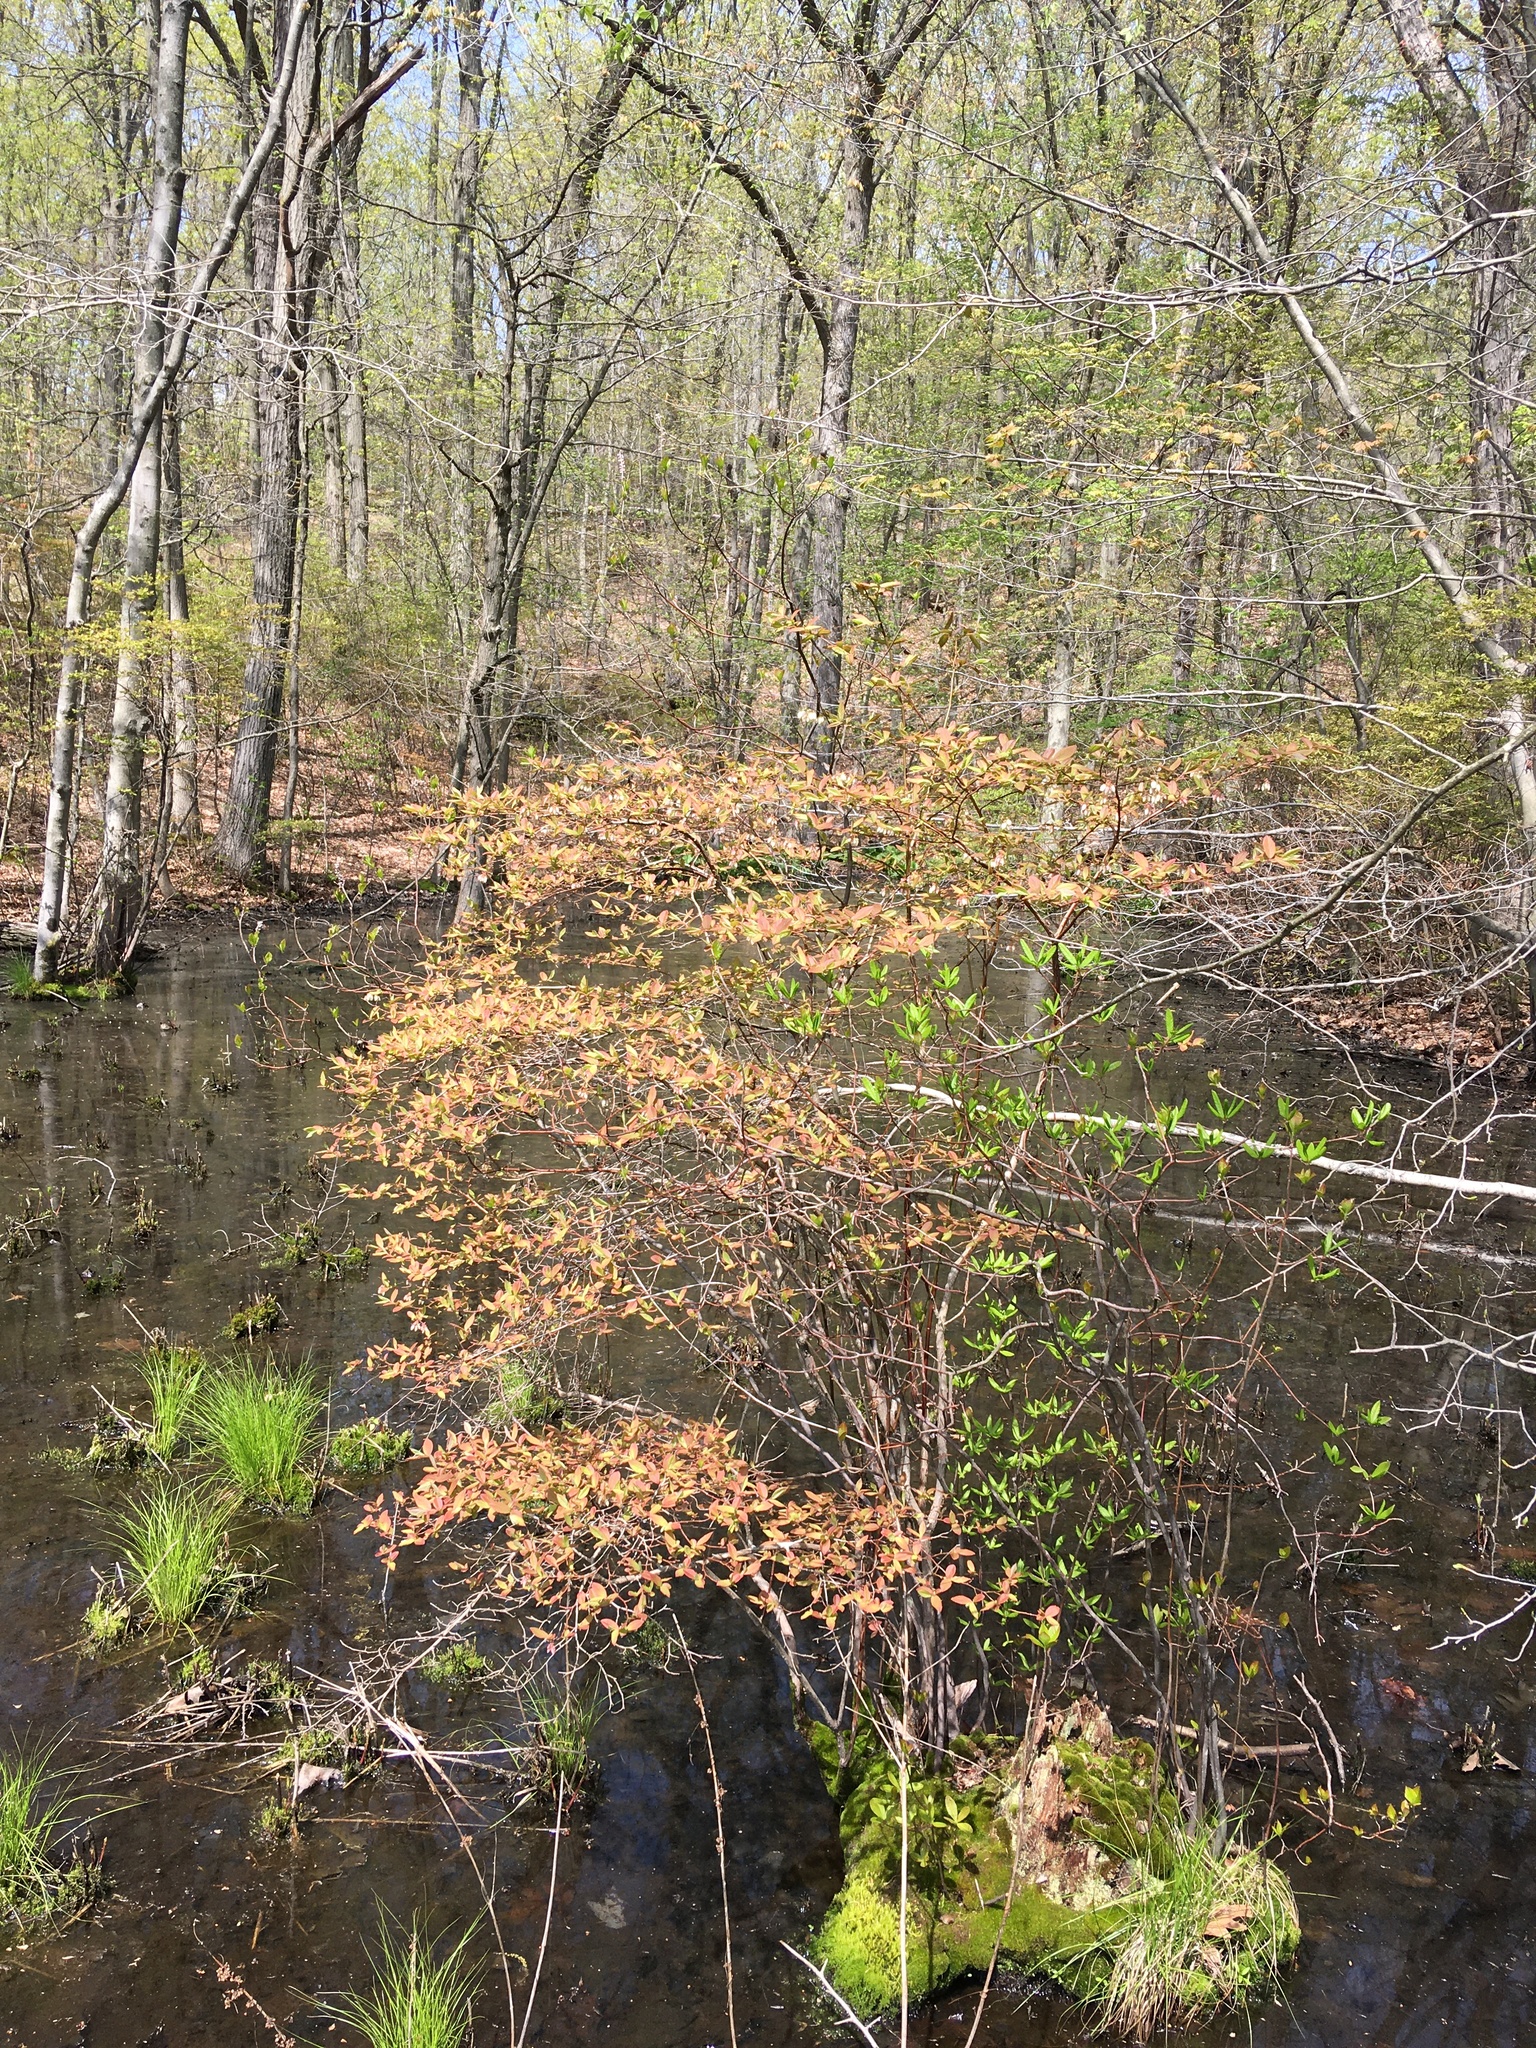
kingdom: Plantae
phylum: Tracheophyta
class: Magnoliopsida
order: Ericales
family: Ericaceae
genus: Vaccinium
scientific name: Vaccinium corymbosum
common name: Blueberry
